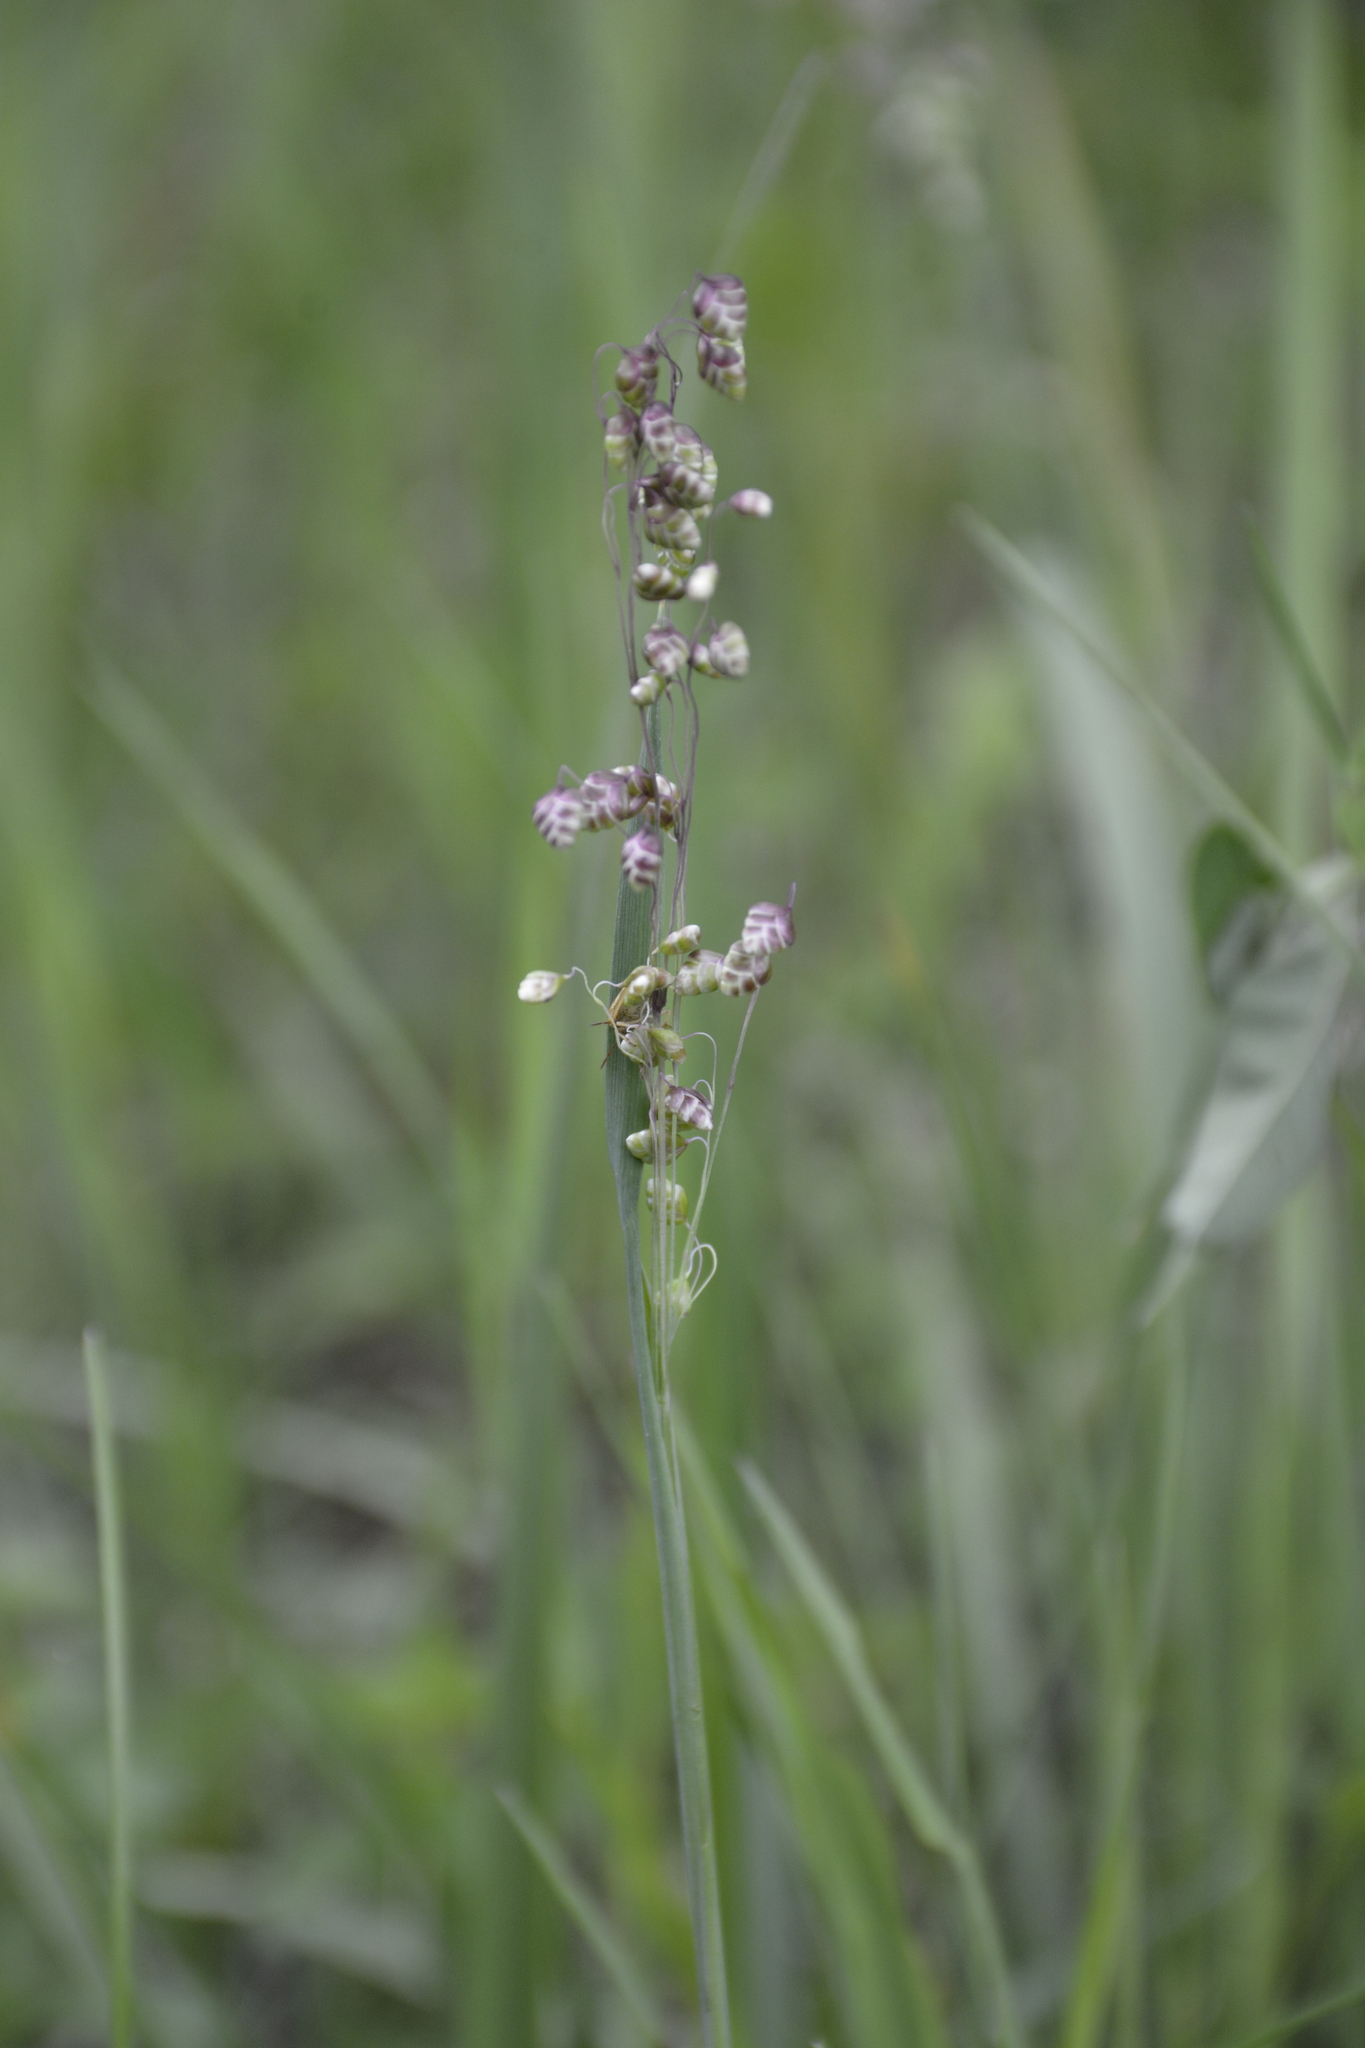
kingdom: Plantae
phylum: Tracheophyta
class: Liliopsida
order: Poales
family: Poaceae
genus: Briza
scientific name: Briza media
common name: Quaking grass
